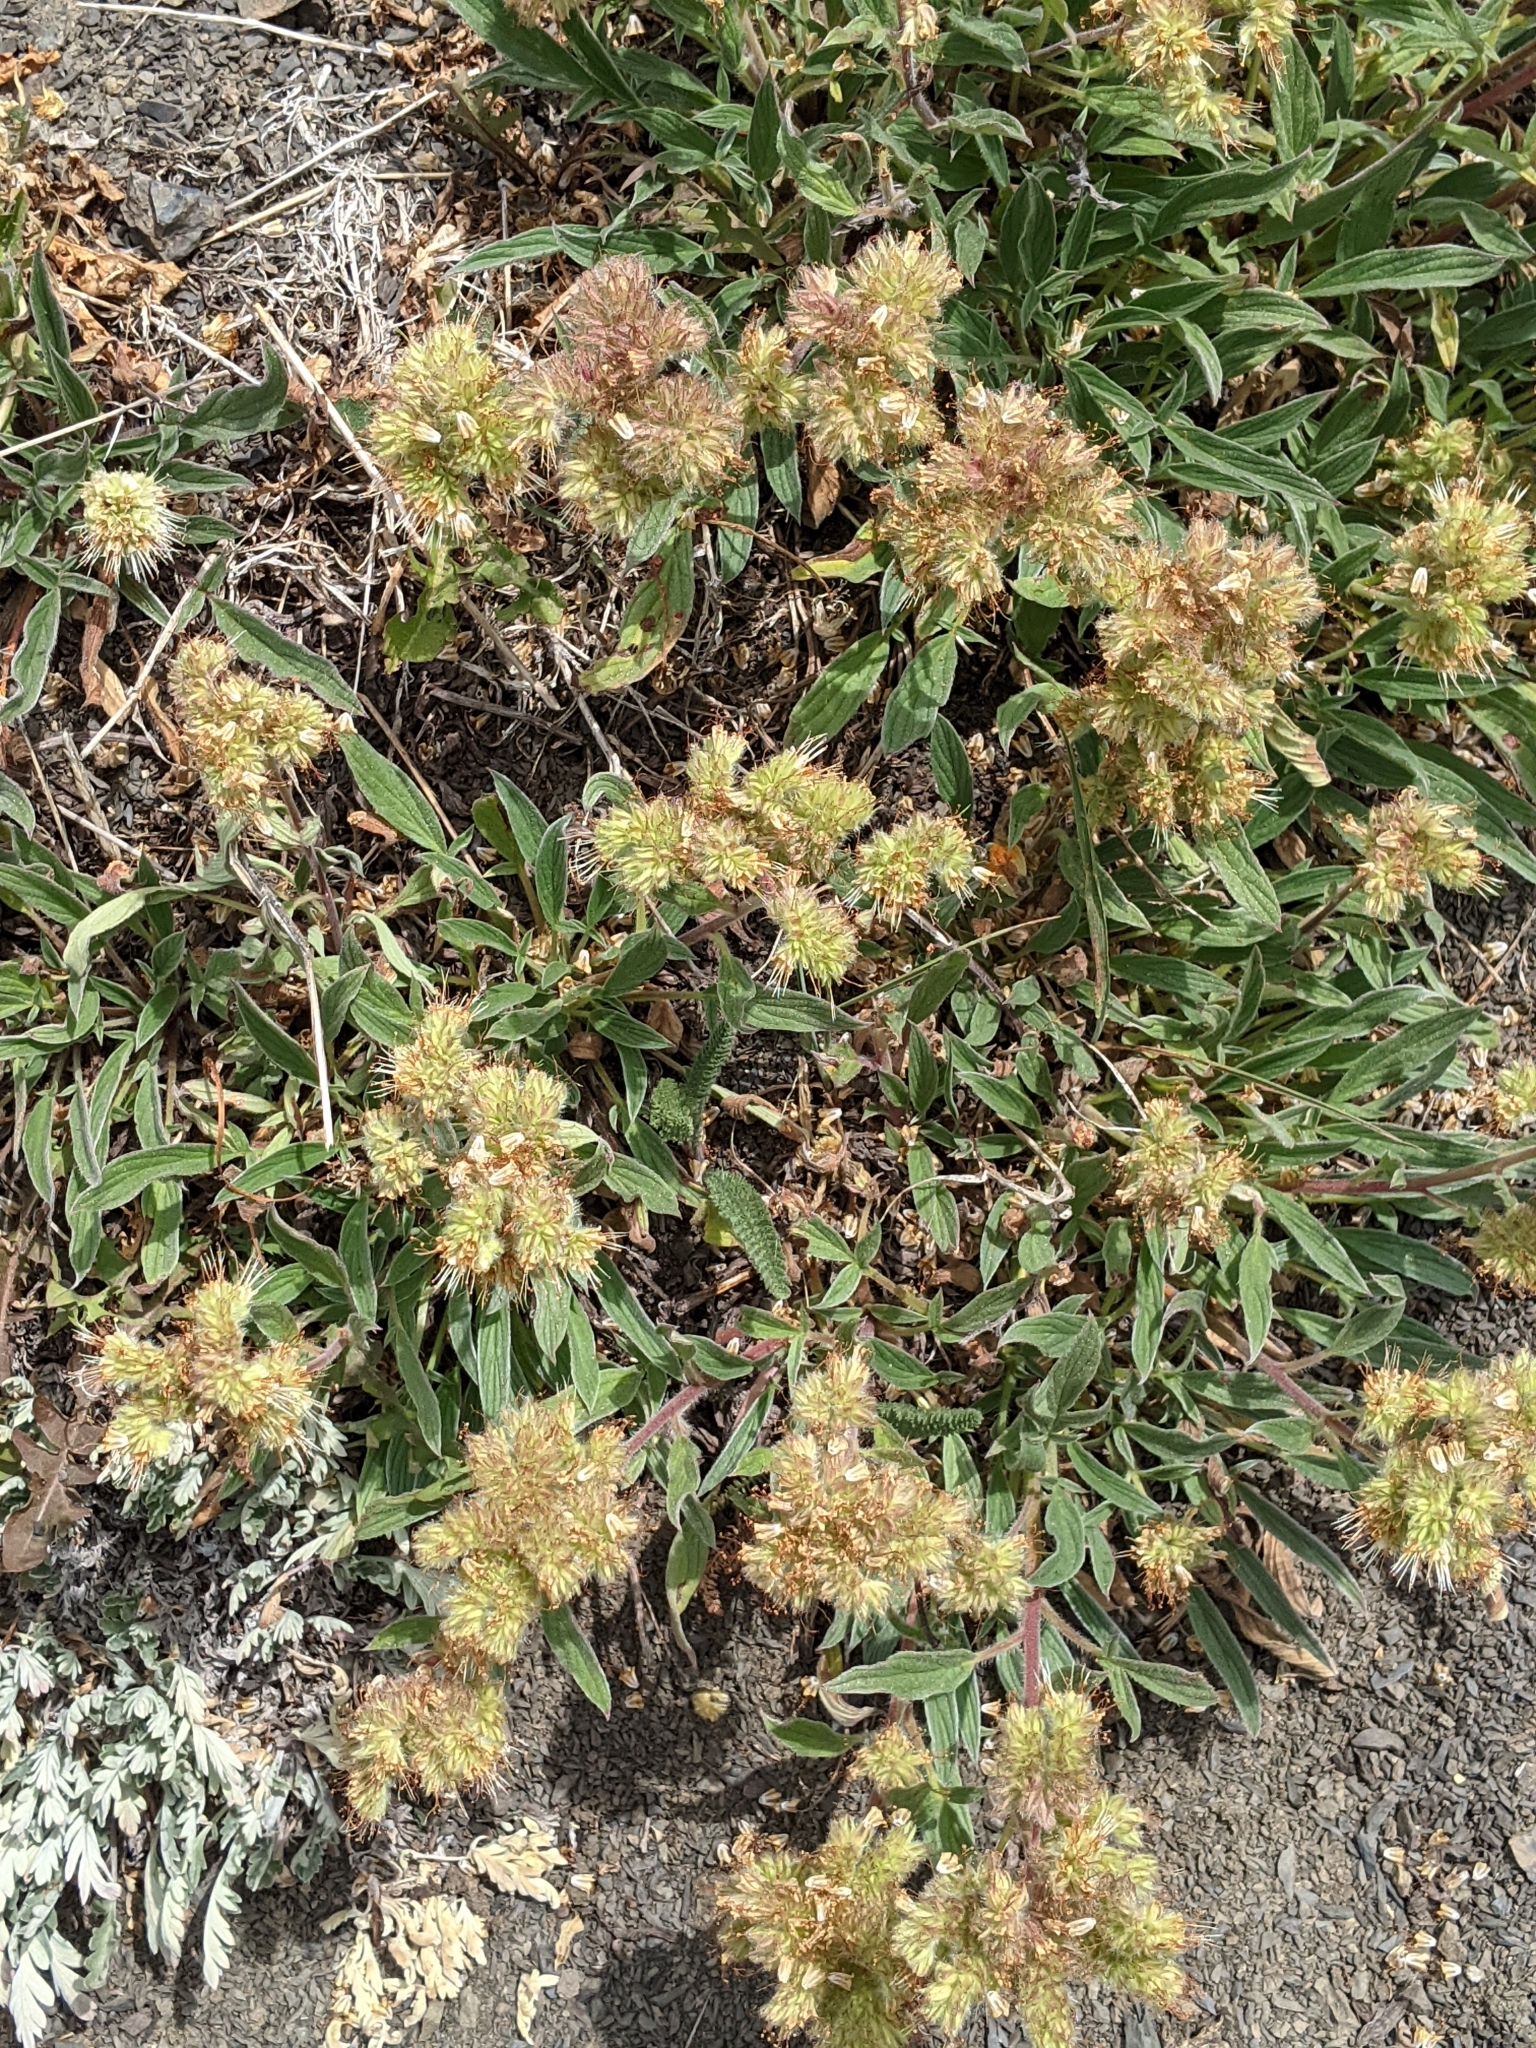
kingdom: Plantae
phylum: Tracheophyta
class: Magnoliopsida
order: Boraginales
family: Hydrophyllaceae
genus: Phacelia
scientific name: Phacelia hastata
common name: Silver-leaved phacelia
